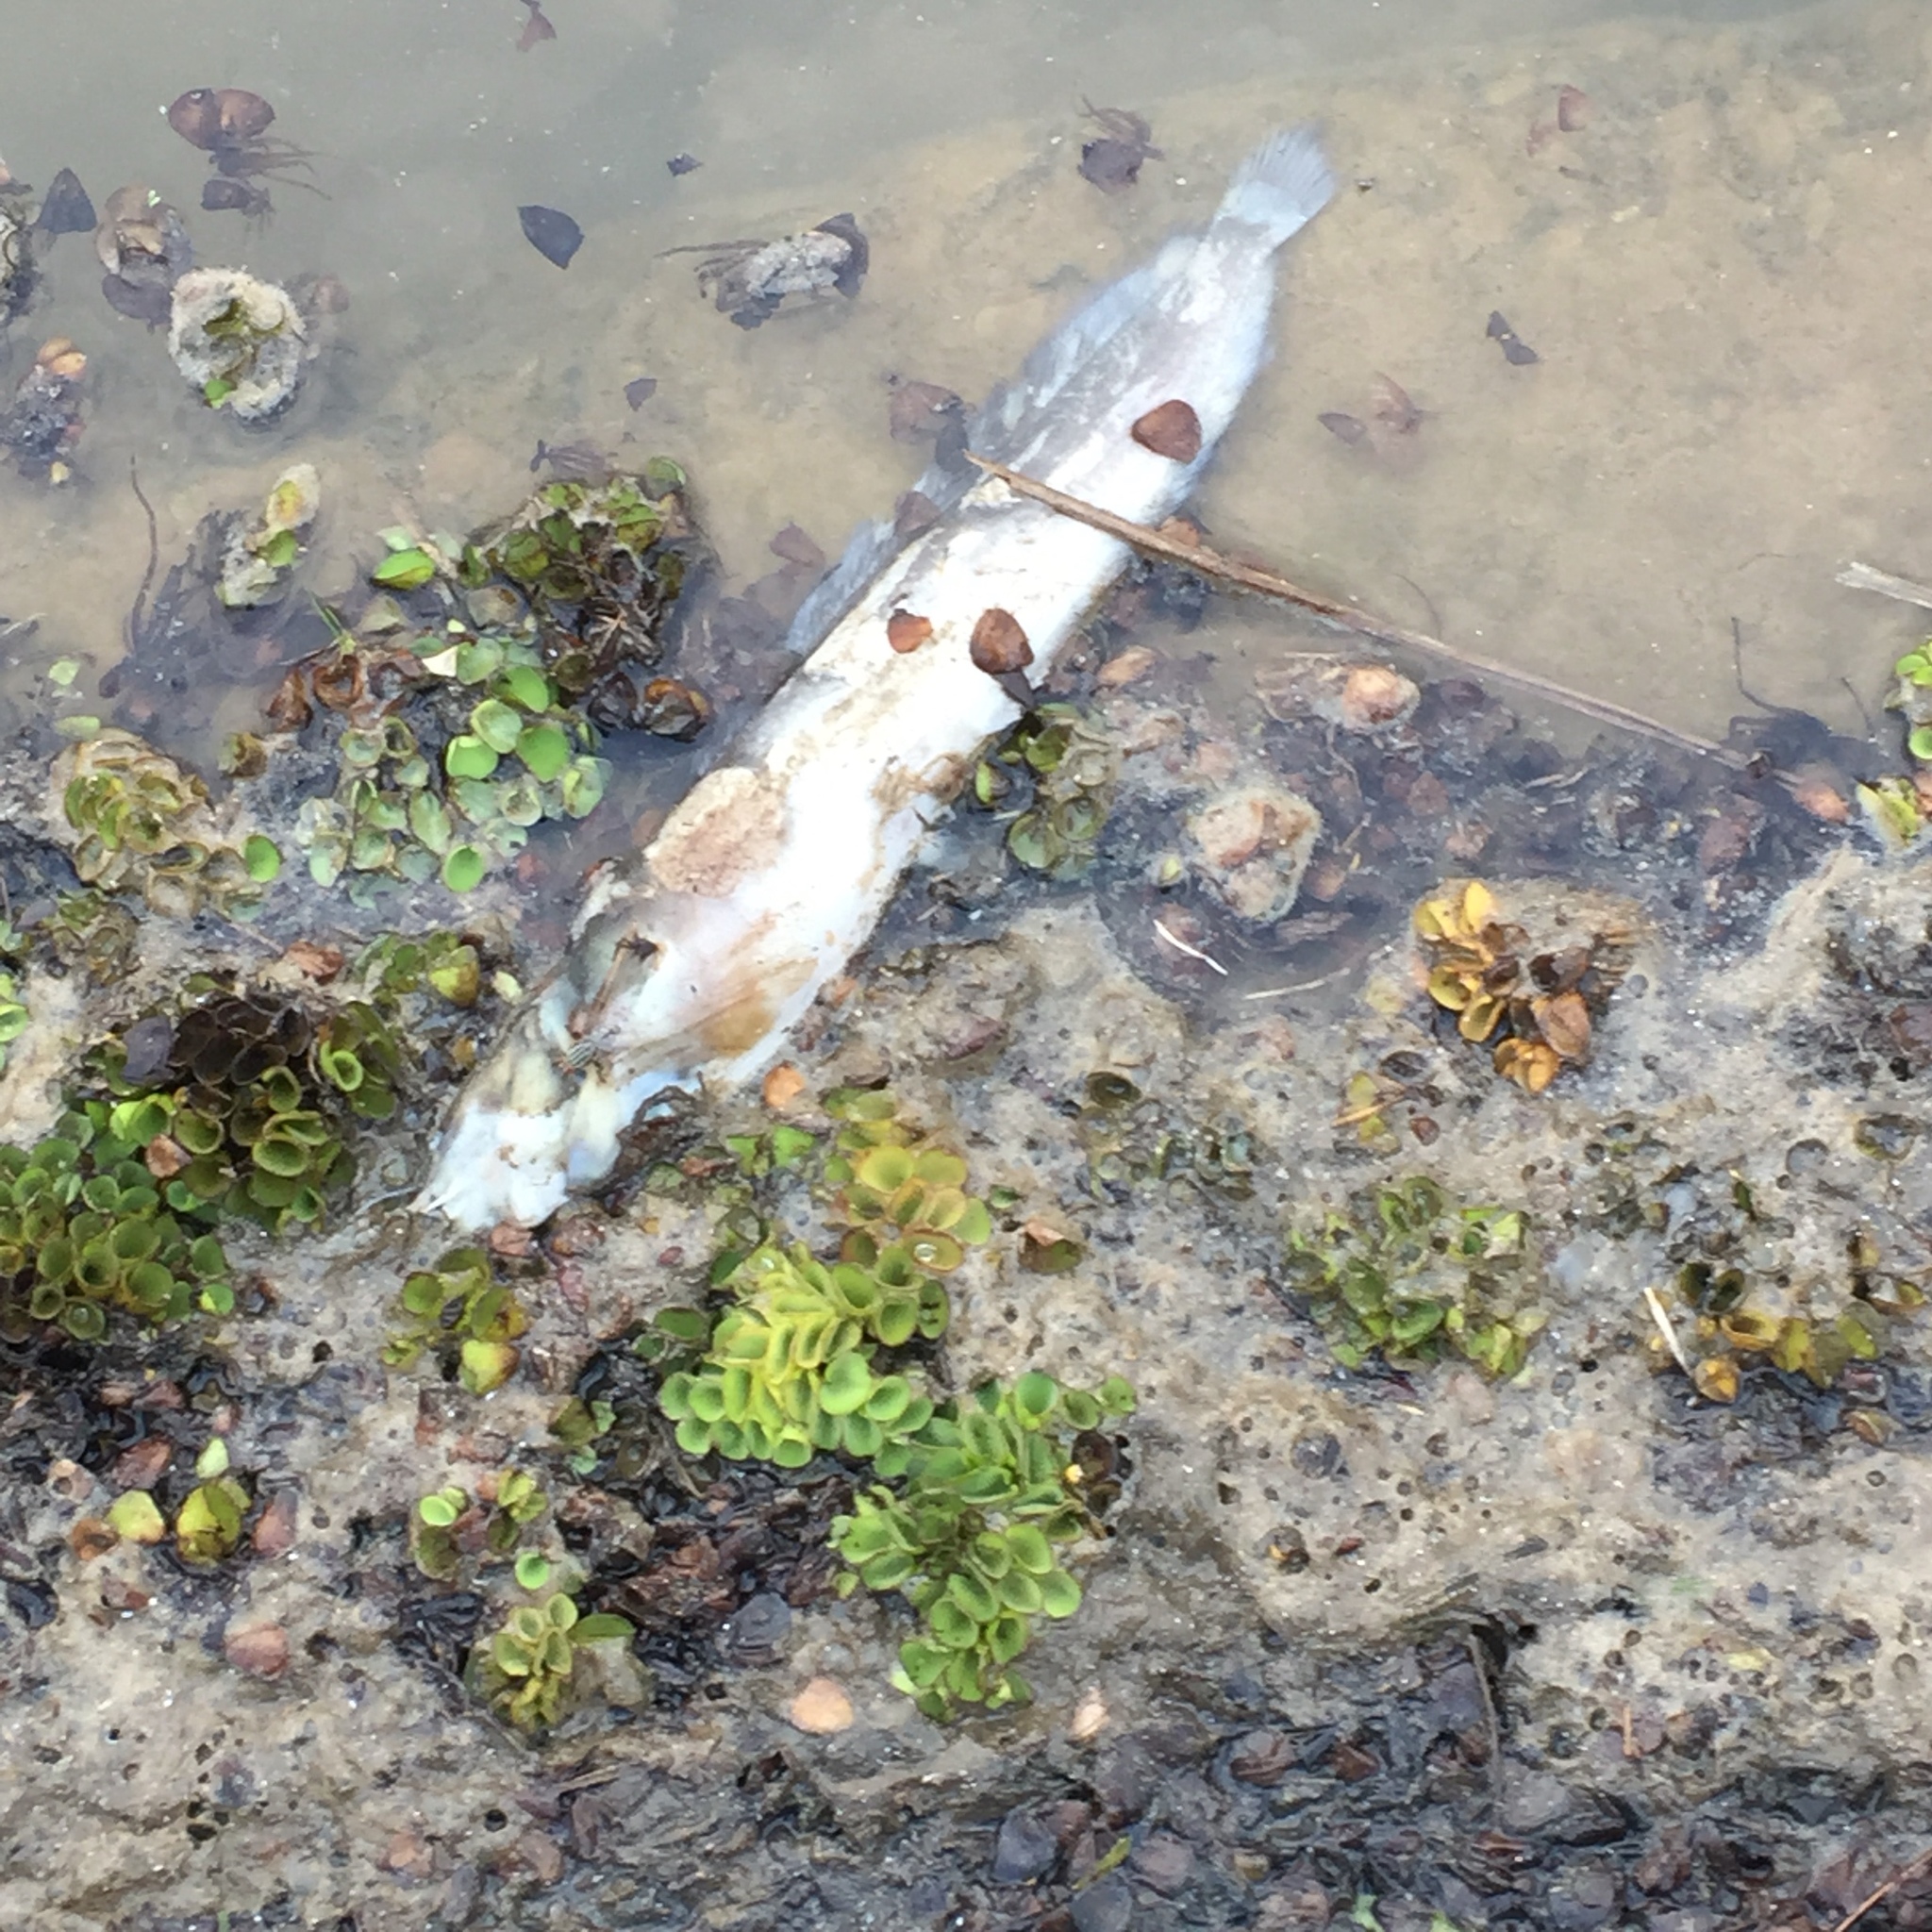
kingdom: Plantae
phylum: Tracheophyta
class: Polypodiopsida
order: Salviniales
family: Salviniaceae
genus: Salvinia
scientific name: Salvinia cucullata
